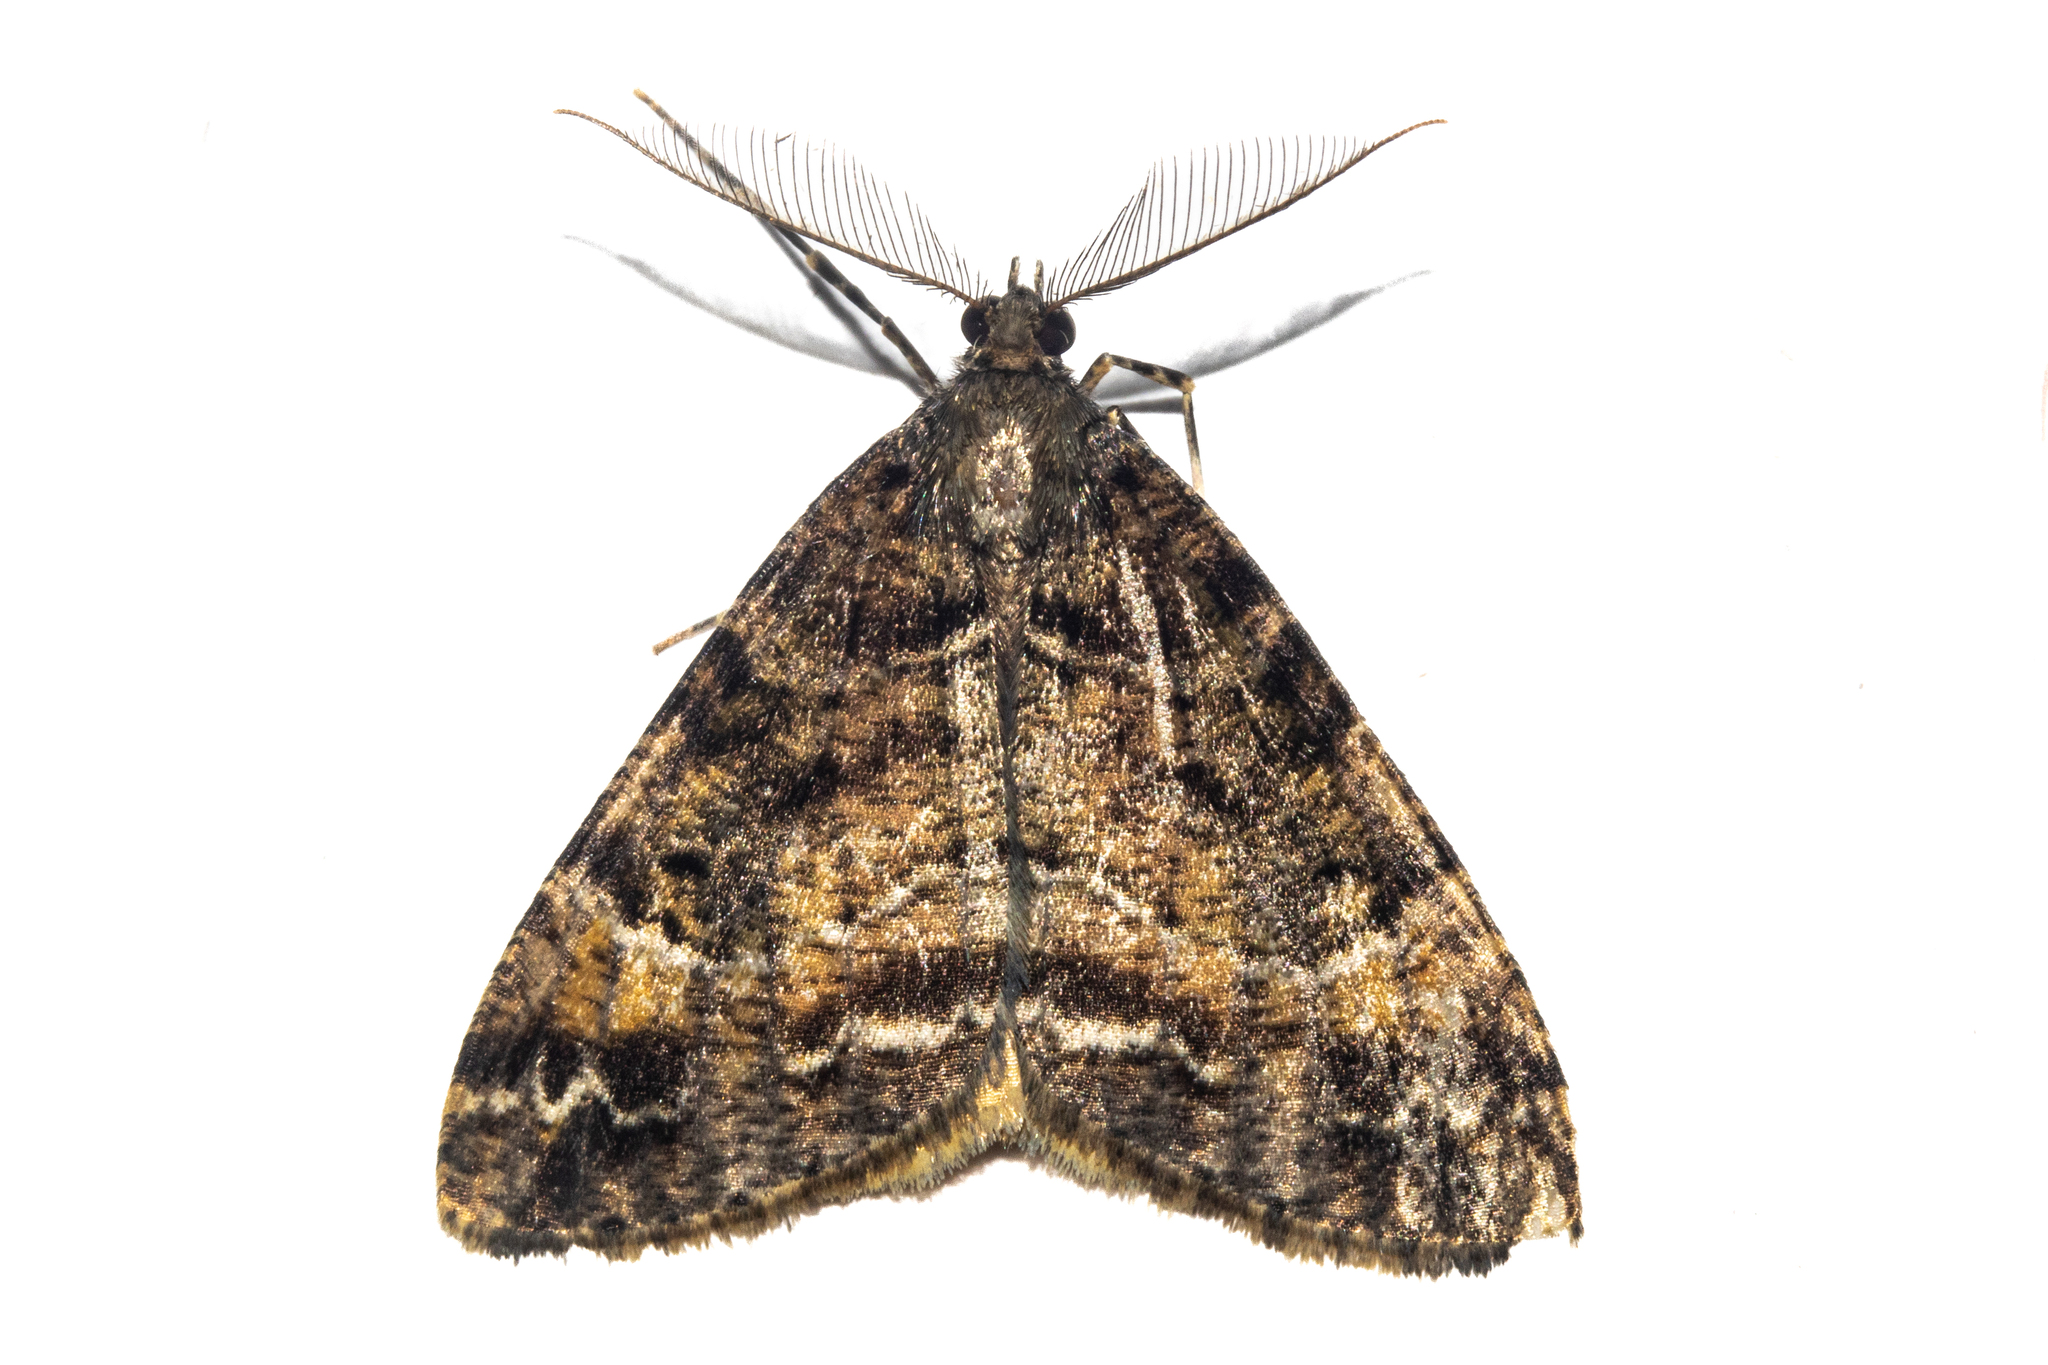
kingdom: Animalia
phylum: Arthropoda
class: Insecta
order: Lepidoptera
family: Geometridae
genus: Pseudocoremia
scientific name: Pseudocoremia productata
